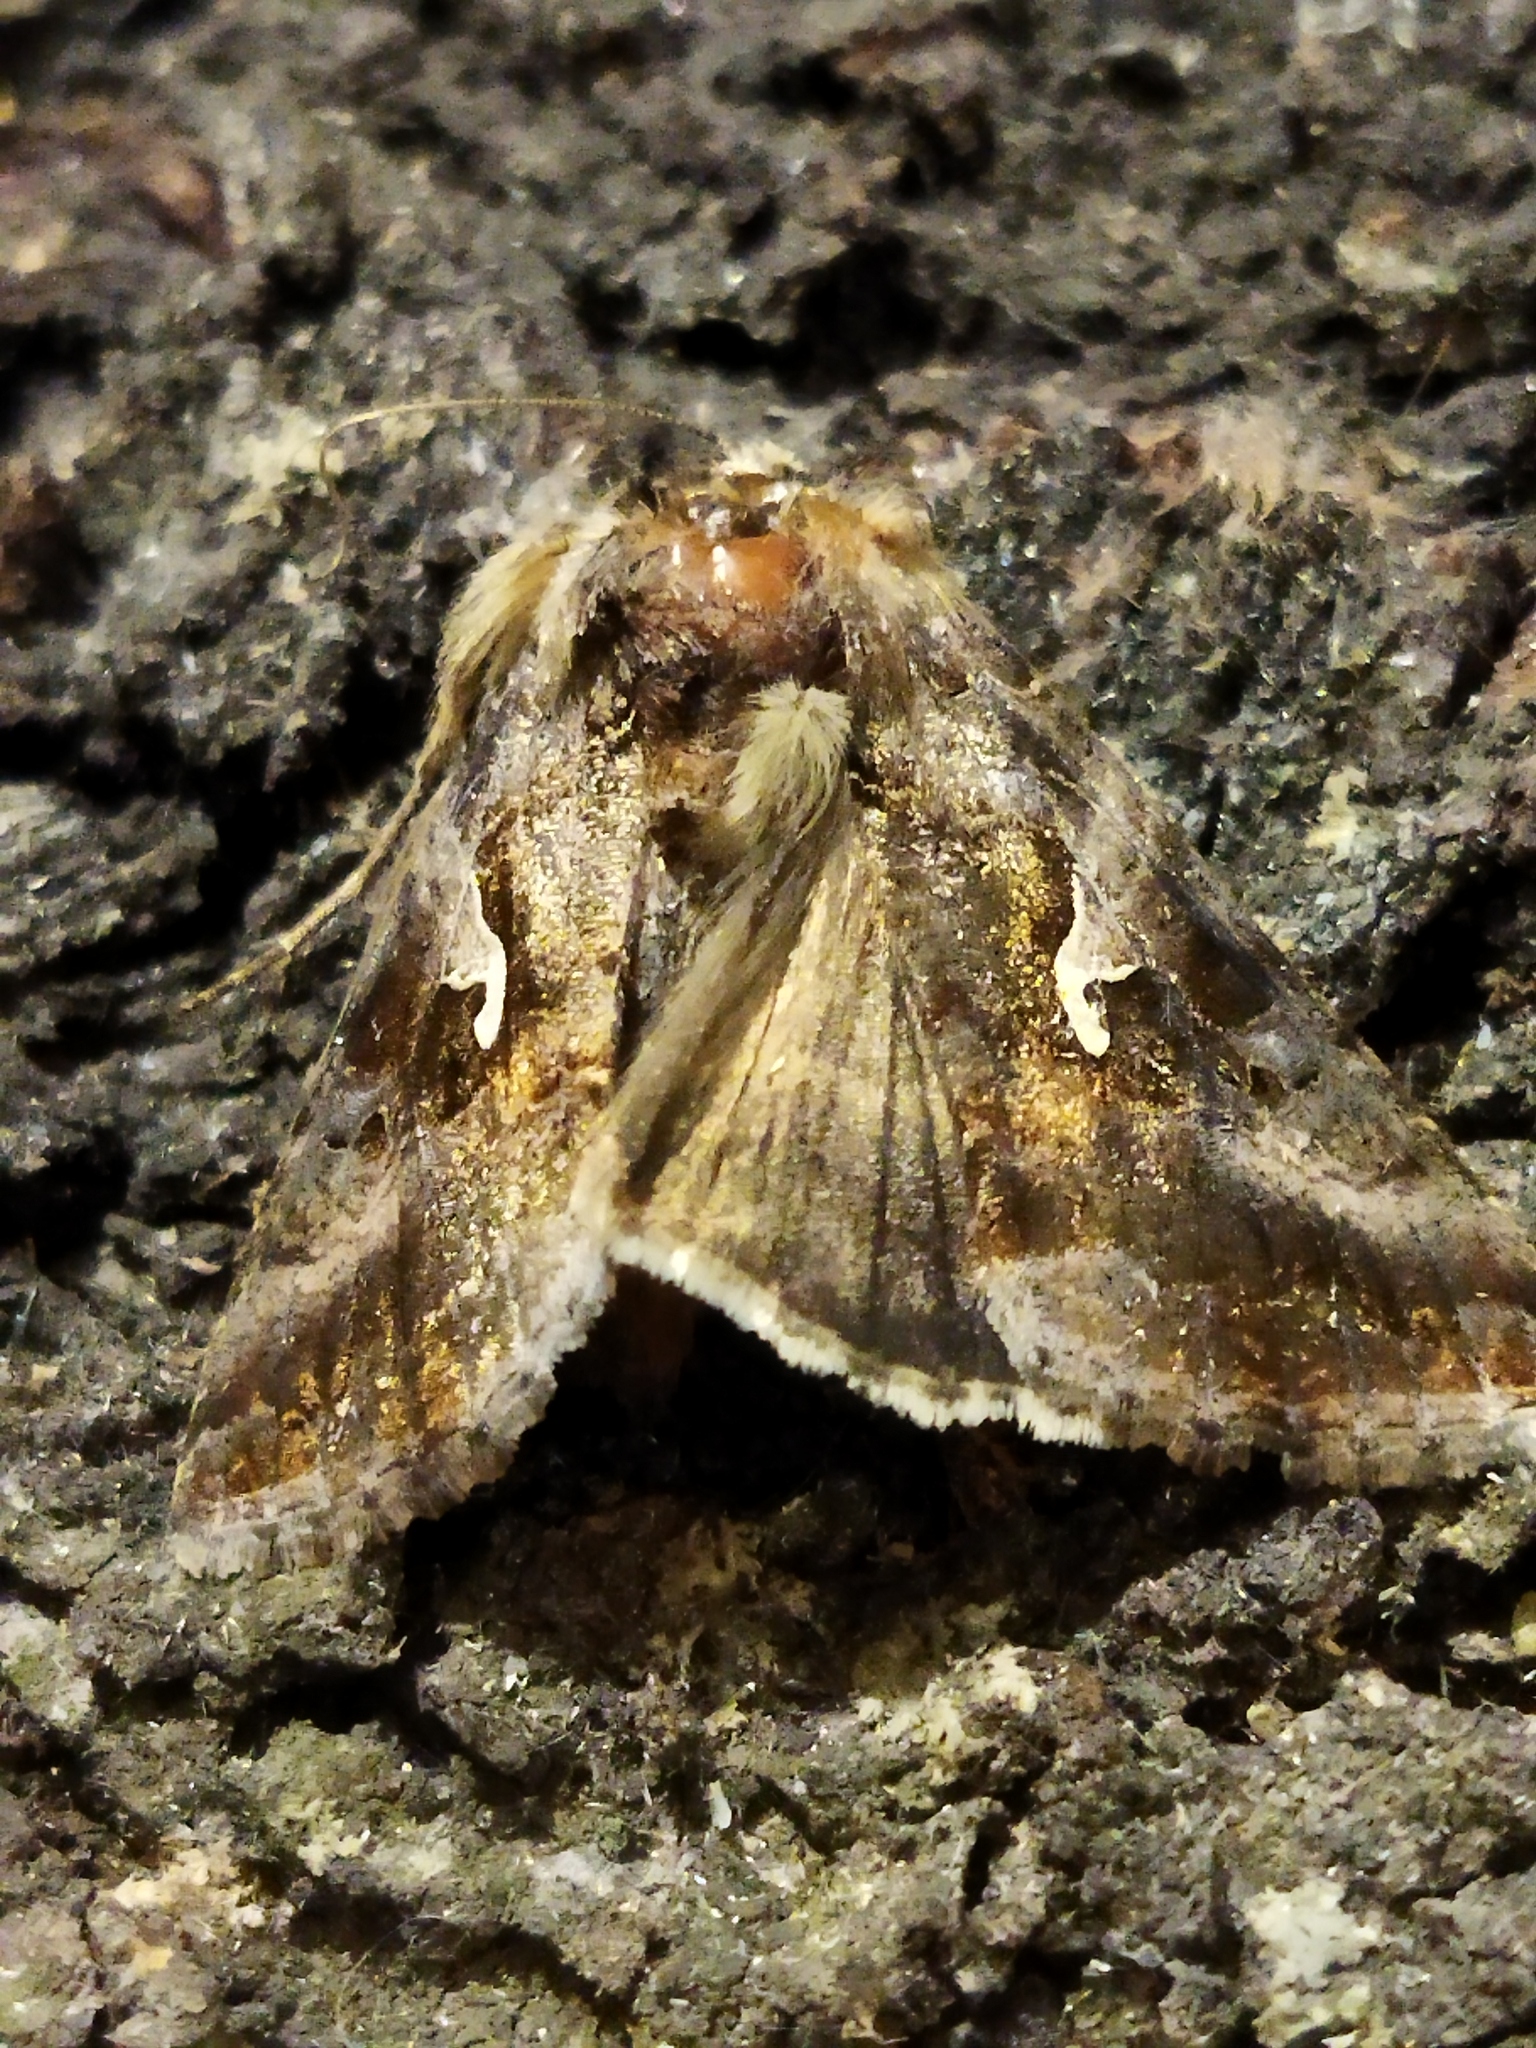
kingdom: Animalia
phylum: Arthropoda
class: Insecta
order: Lepidoptera
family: Noctuidae
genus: Autographa
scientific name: Autographa gamma
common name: Silver y
